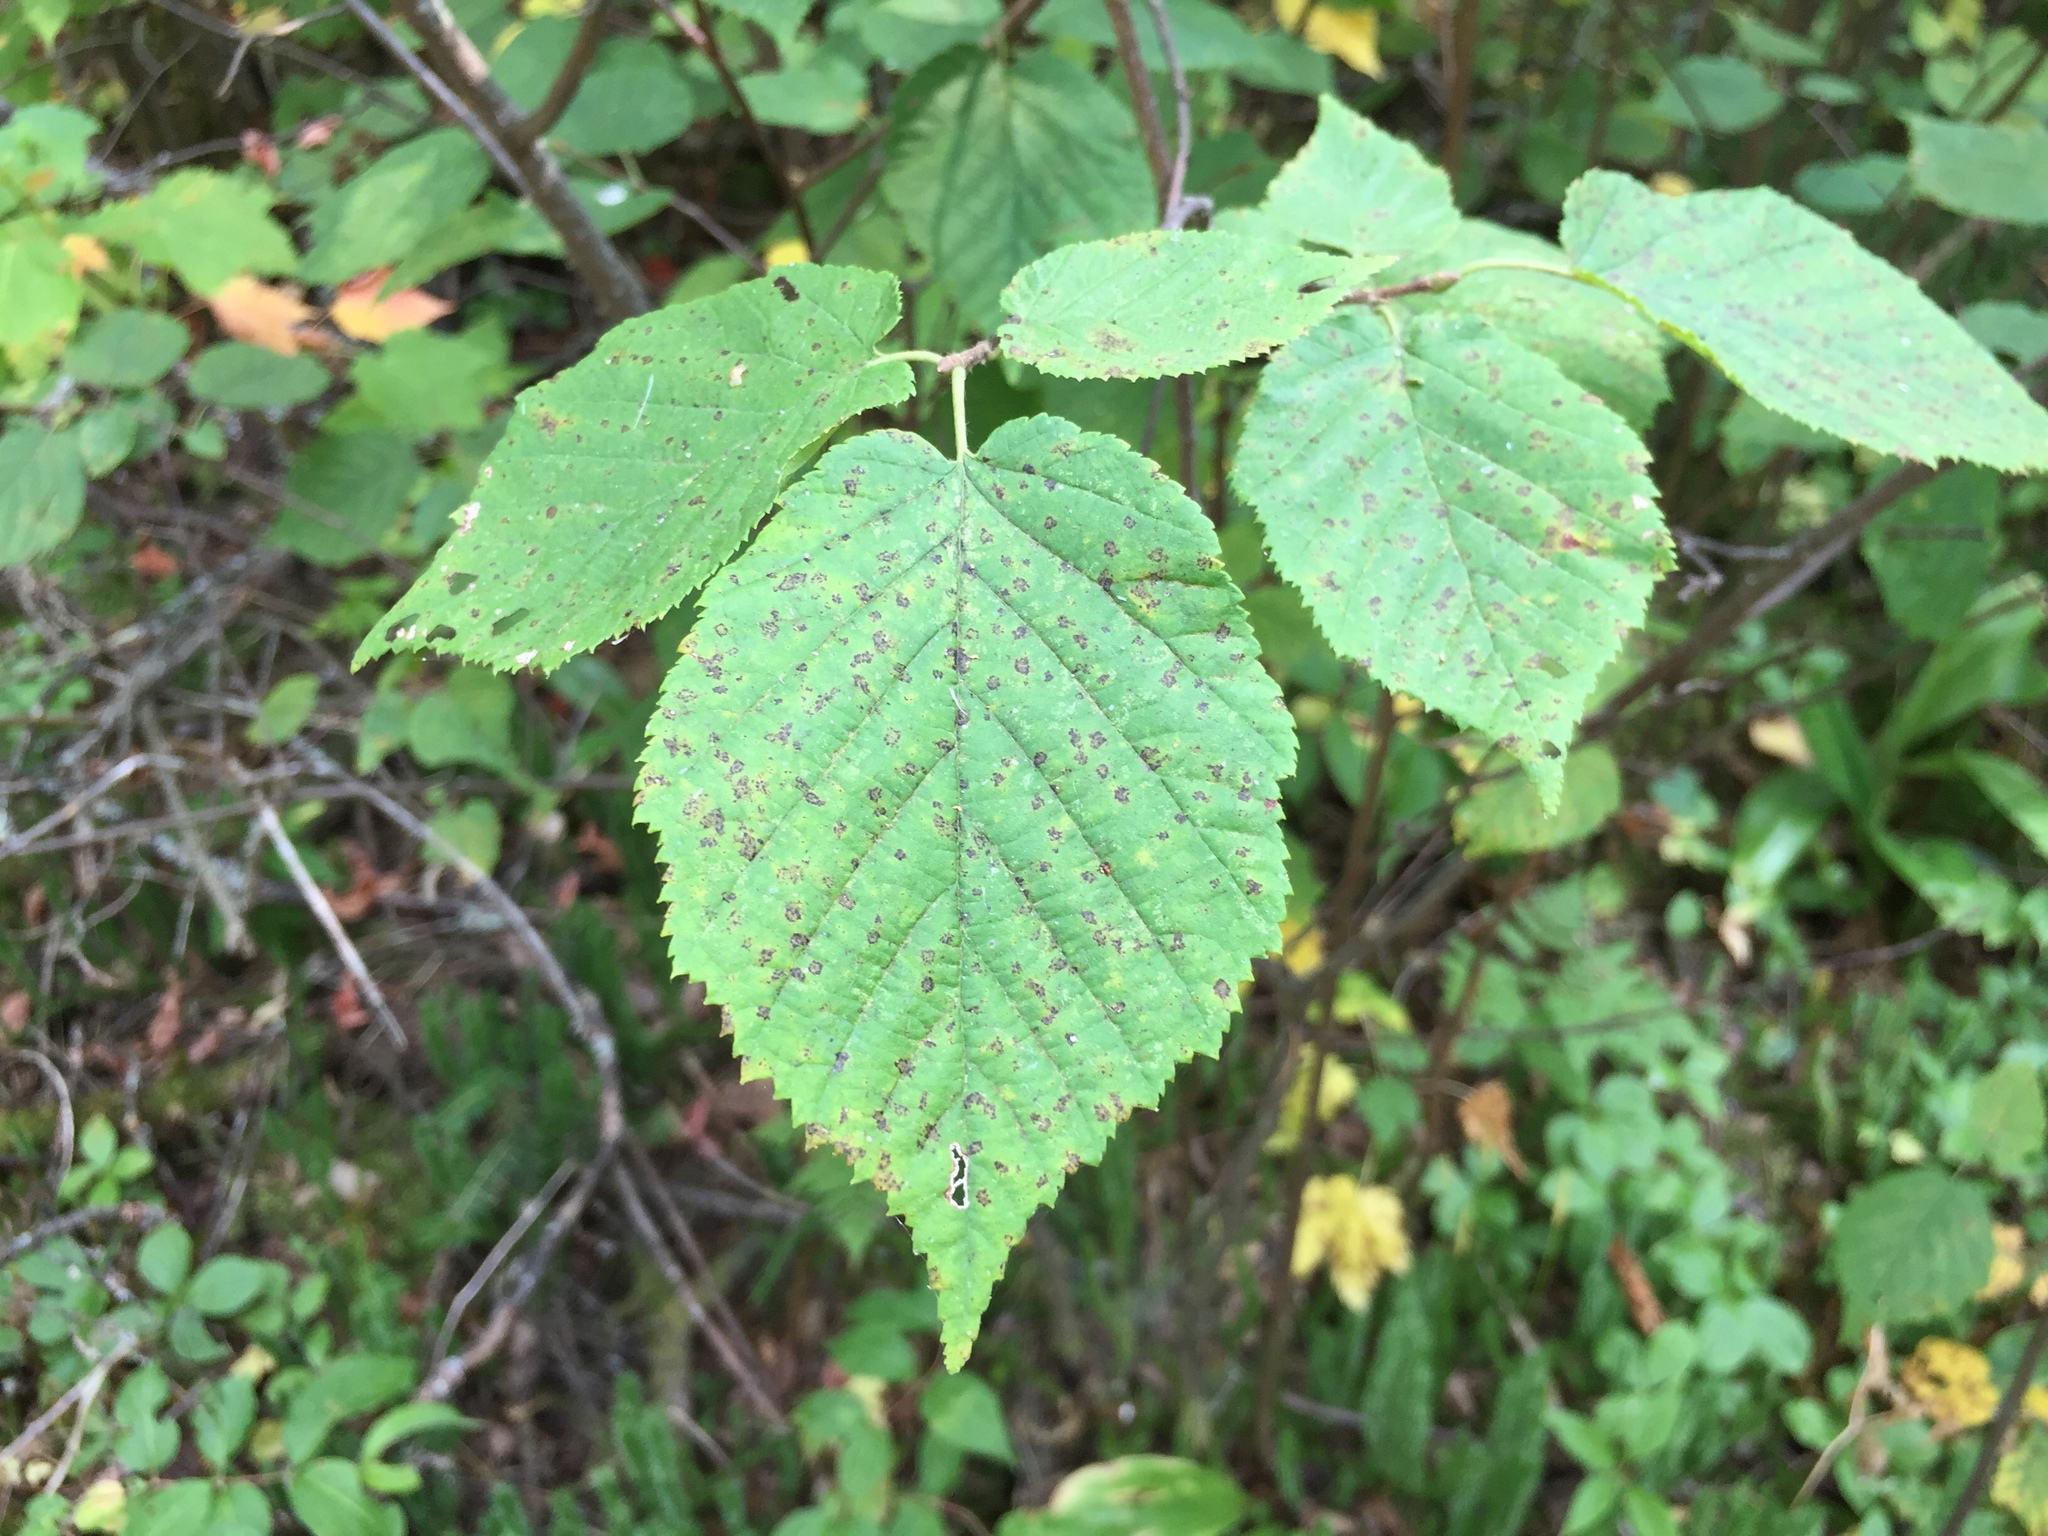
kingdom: Plantae
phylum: Tracheophyta
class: Magnoliopsida
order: Fagales
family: Betulaceae
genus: Corylus
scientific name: Corylus cornuta
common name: Beaked hazel
